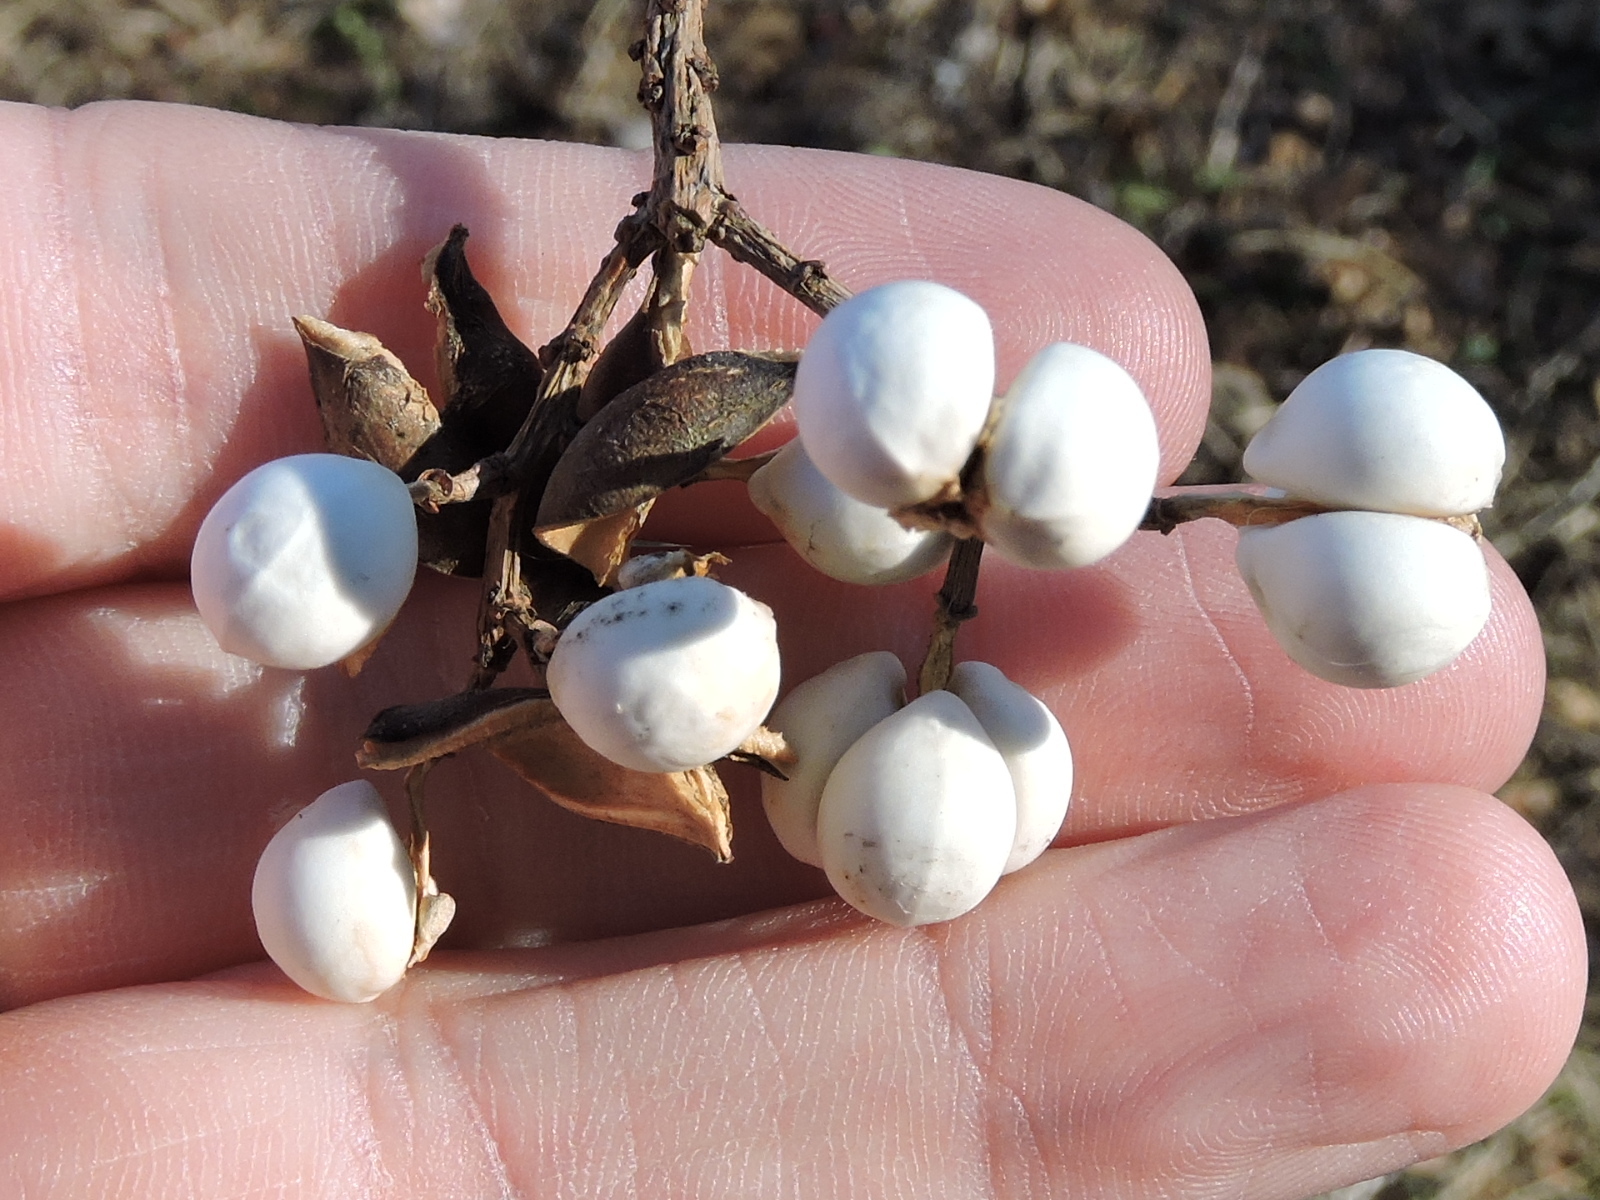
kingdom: Plantae
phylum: Tracheophyta
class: Magnoliopsida
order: Malpighiales
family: Euphorbiaceae
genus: Triadica
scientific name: Triadica sebifera
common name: Chinese tallow
